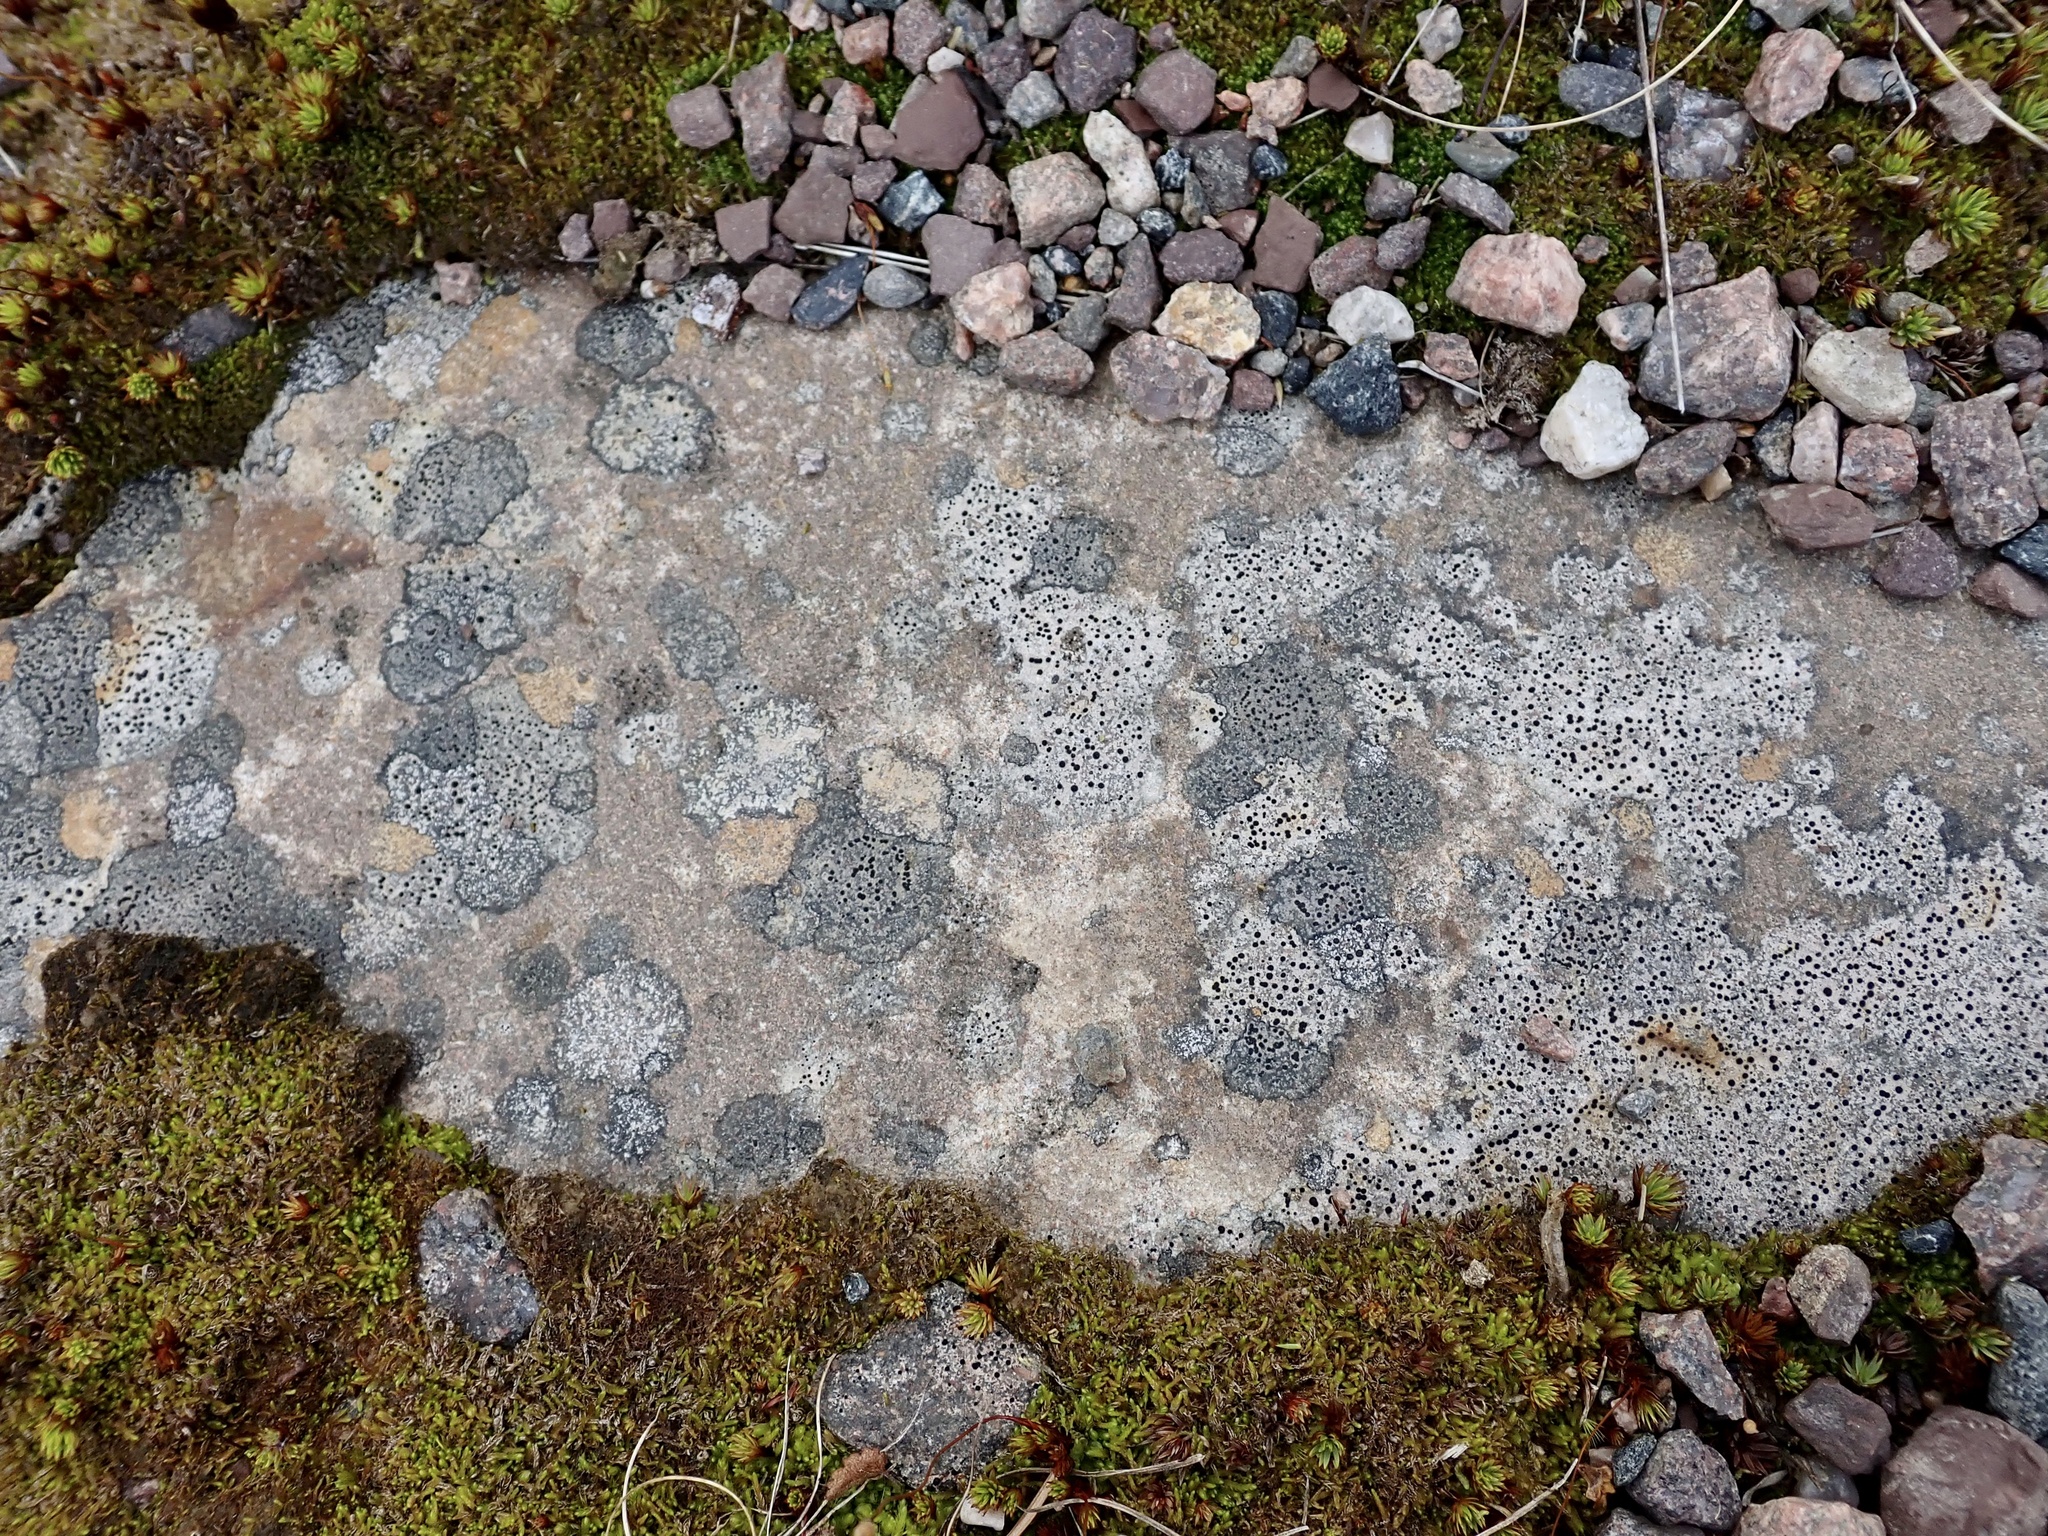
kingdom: Fungi
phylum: Ascomycota
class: Lecanoromycetes
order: Lecideales
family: Lecideaceae
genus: Porpidia
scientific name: Porpidia crustulata
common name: Concentric boulder lichen
